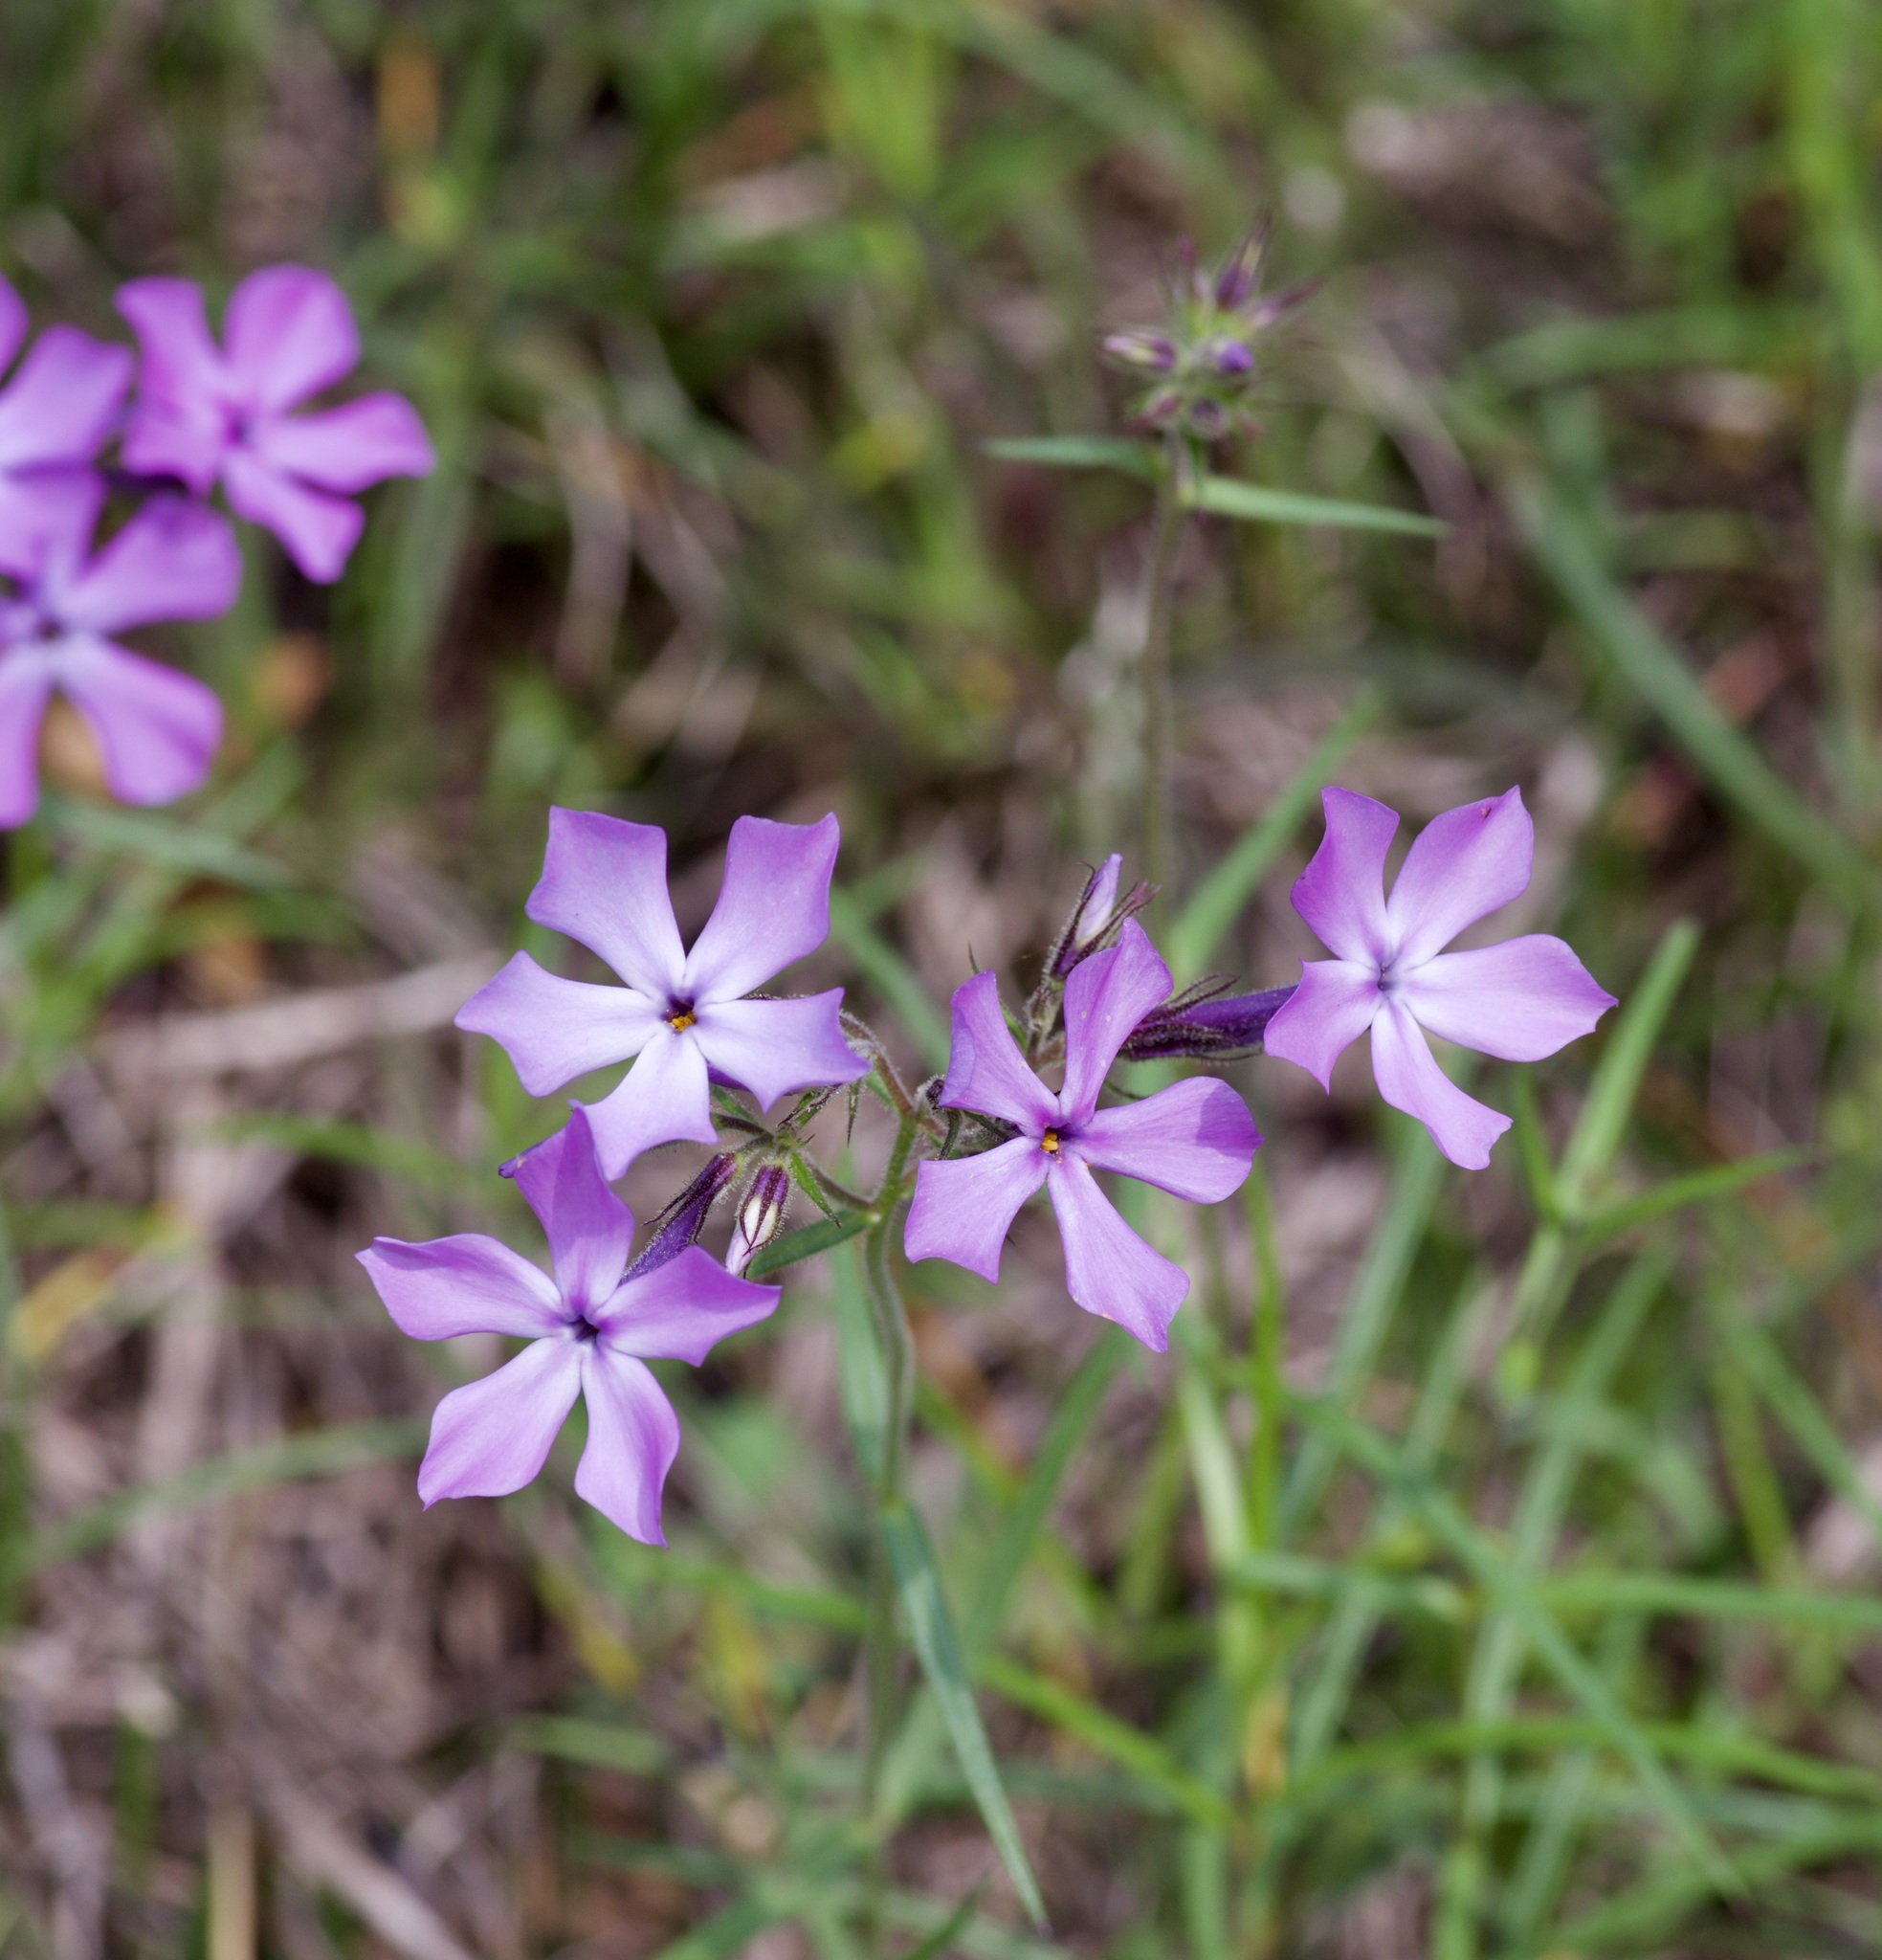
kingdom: Plantae
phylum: Tracheophyta
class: Magnoliopsida
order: Ericales
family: Polemoniaceae
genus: Phlox
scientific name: Phlox pilosa
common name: Prairie phlox
